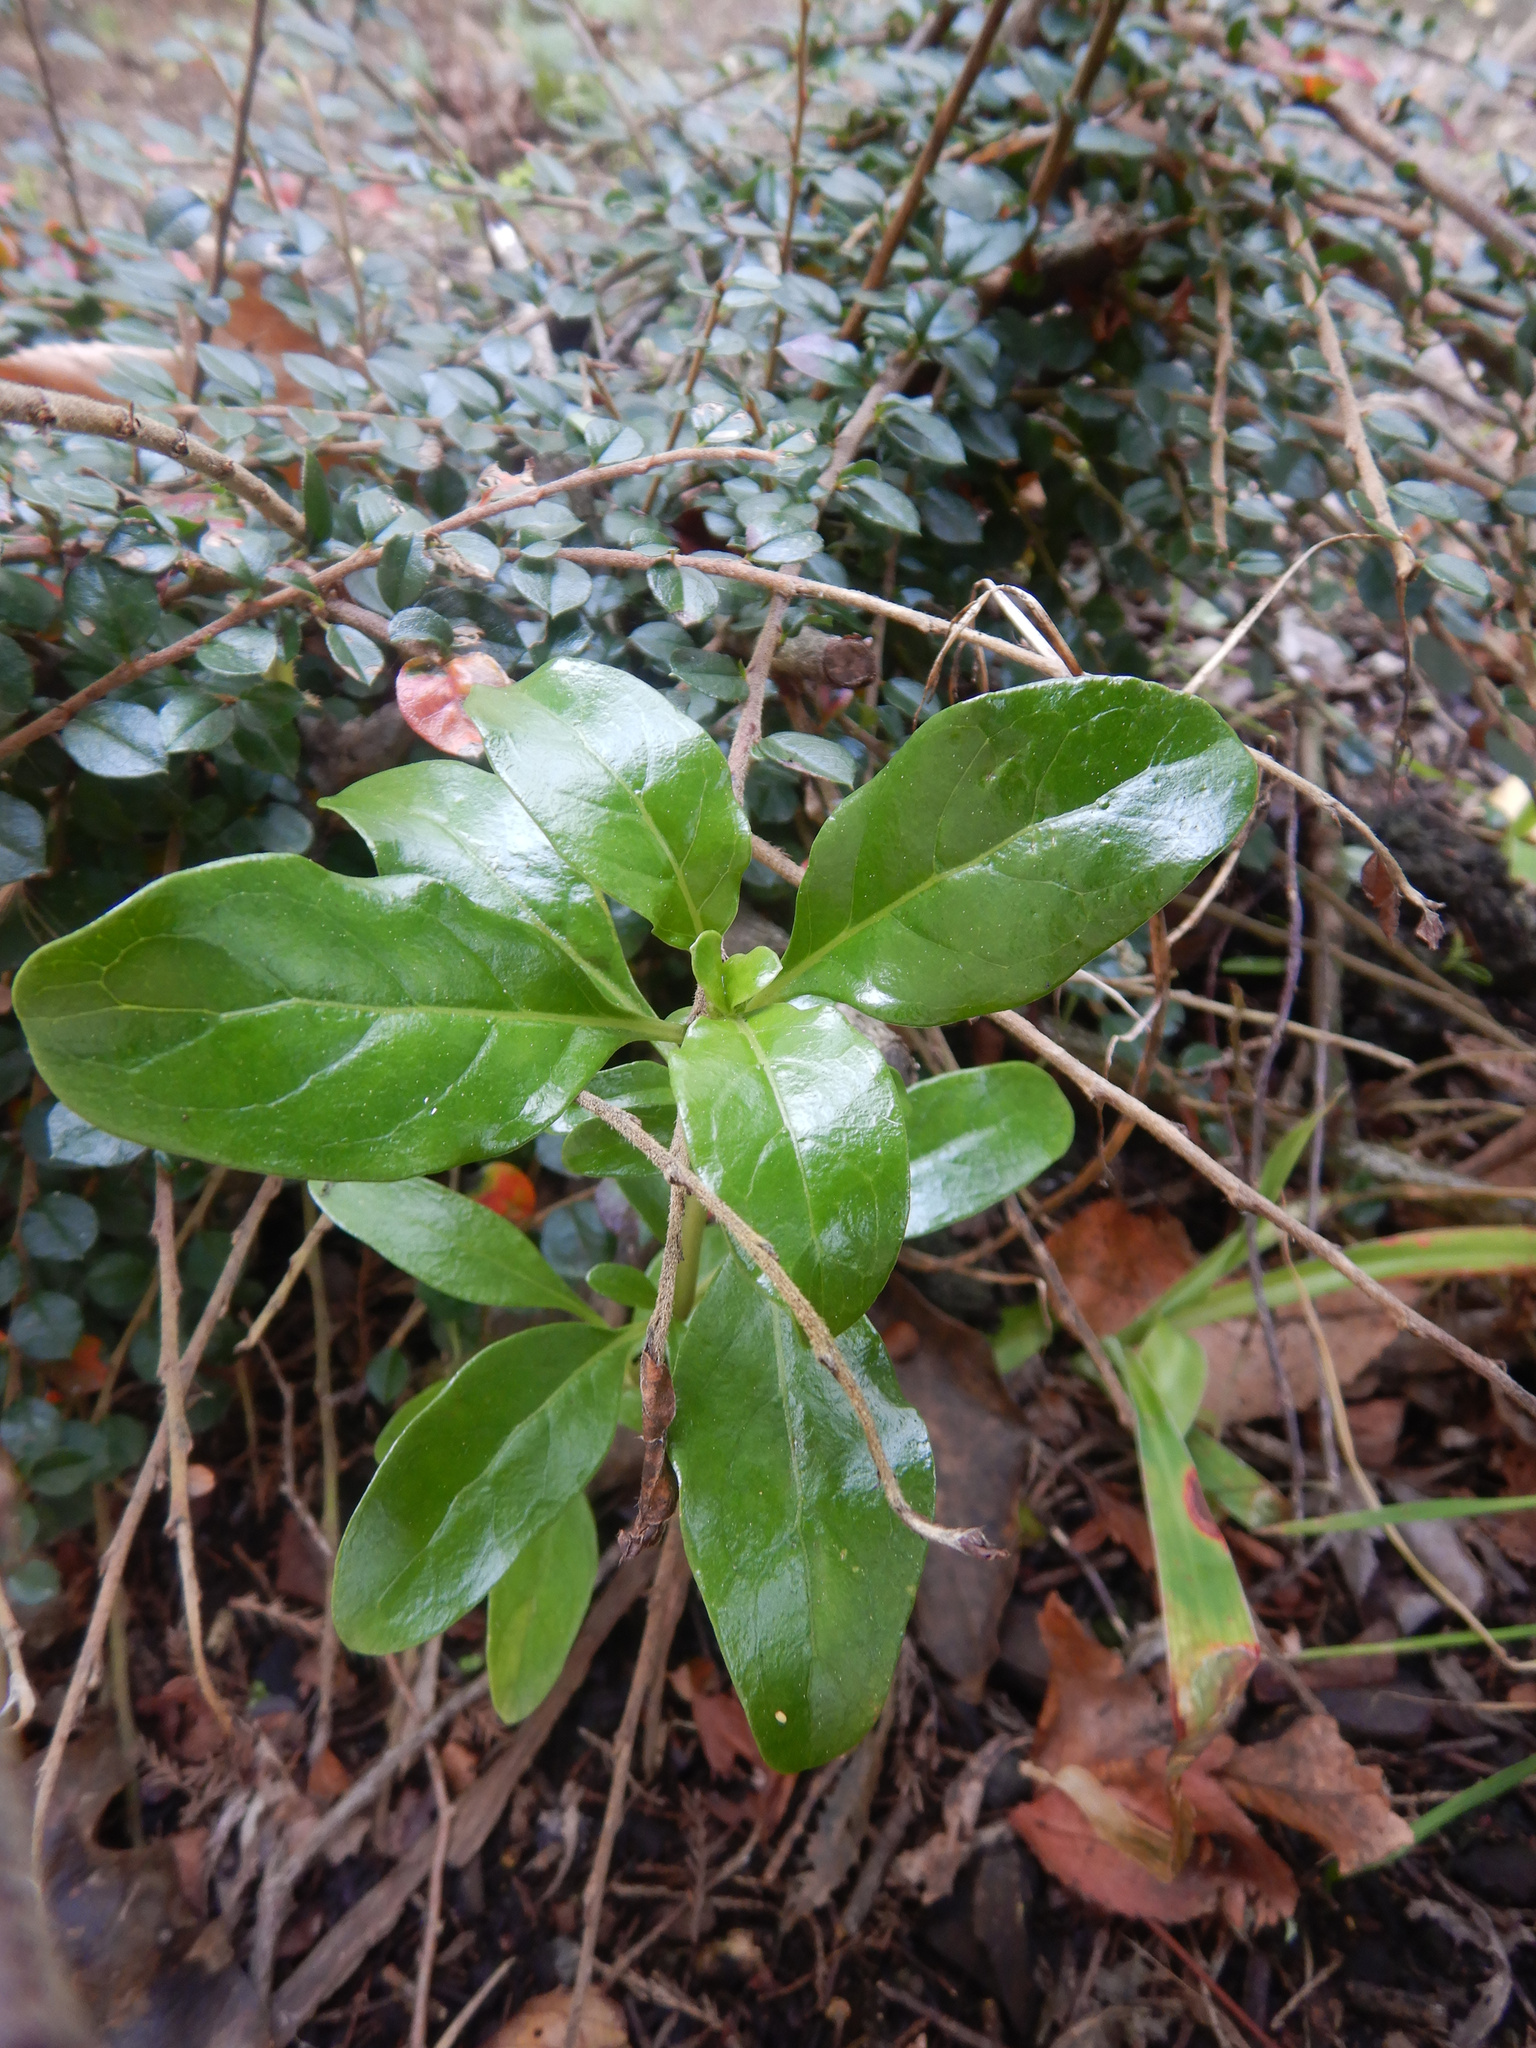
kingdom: Plantae
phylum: Tracheophyta
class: Magnoliopsida
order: Gentianales
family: Rubiaceae
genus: Coprosma
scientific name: Coprosma repens
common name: Tree bedstraw
